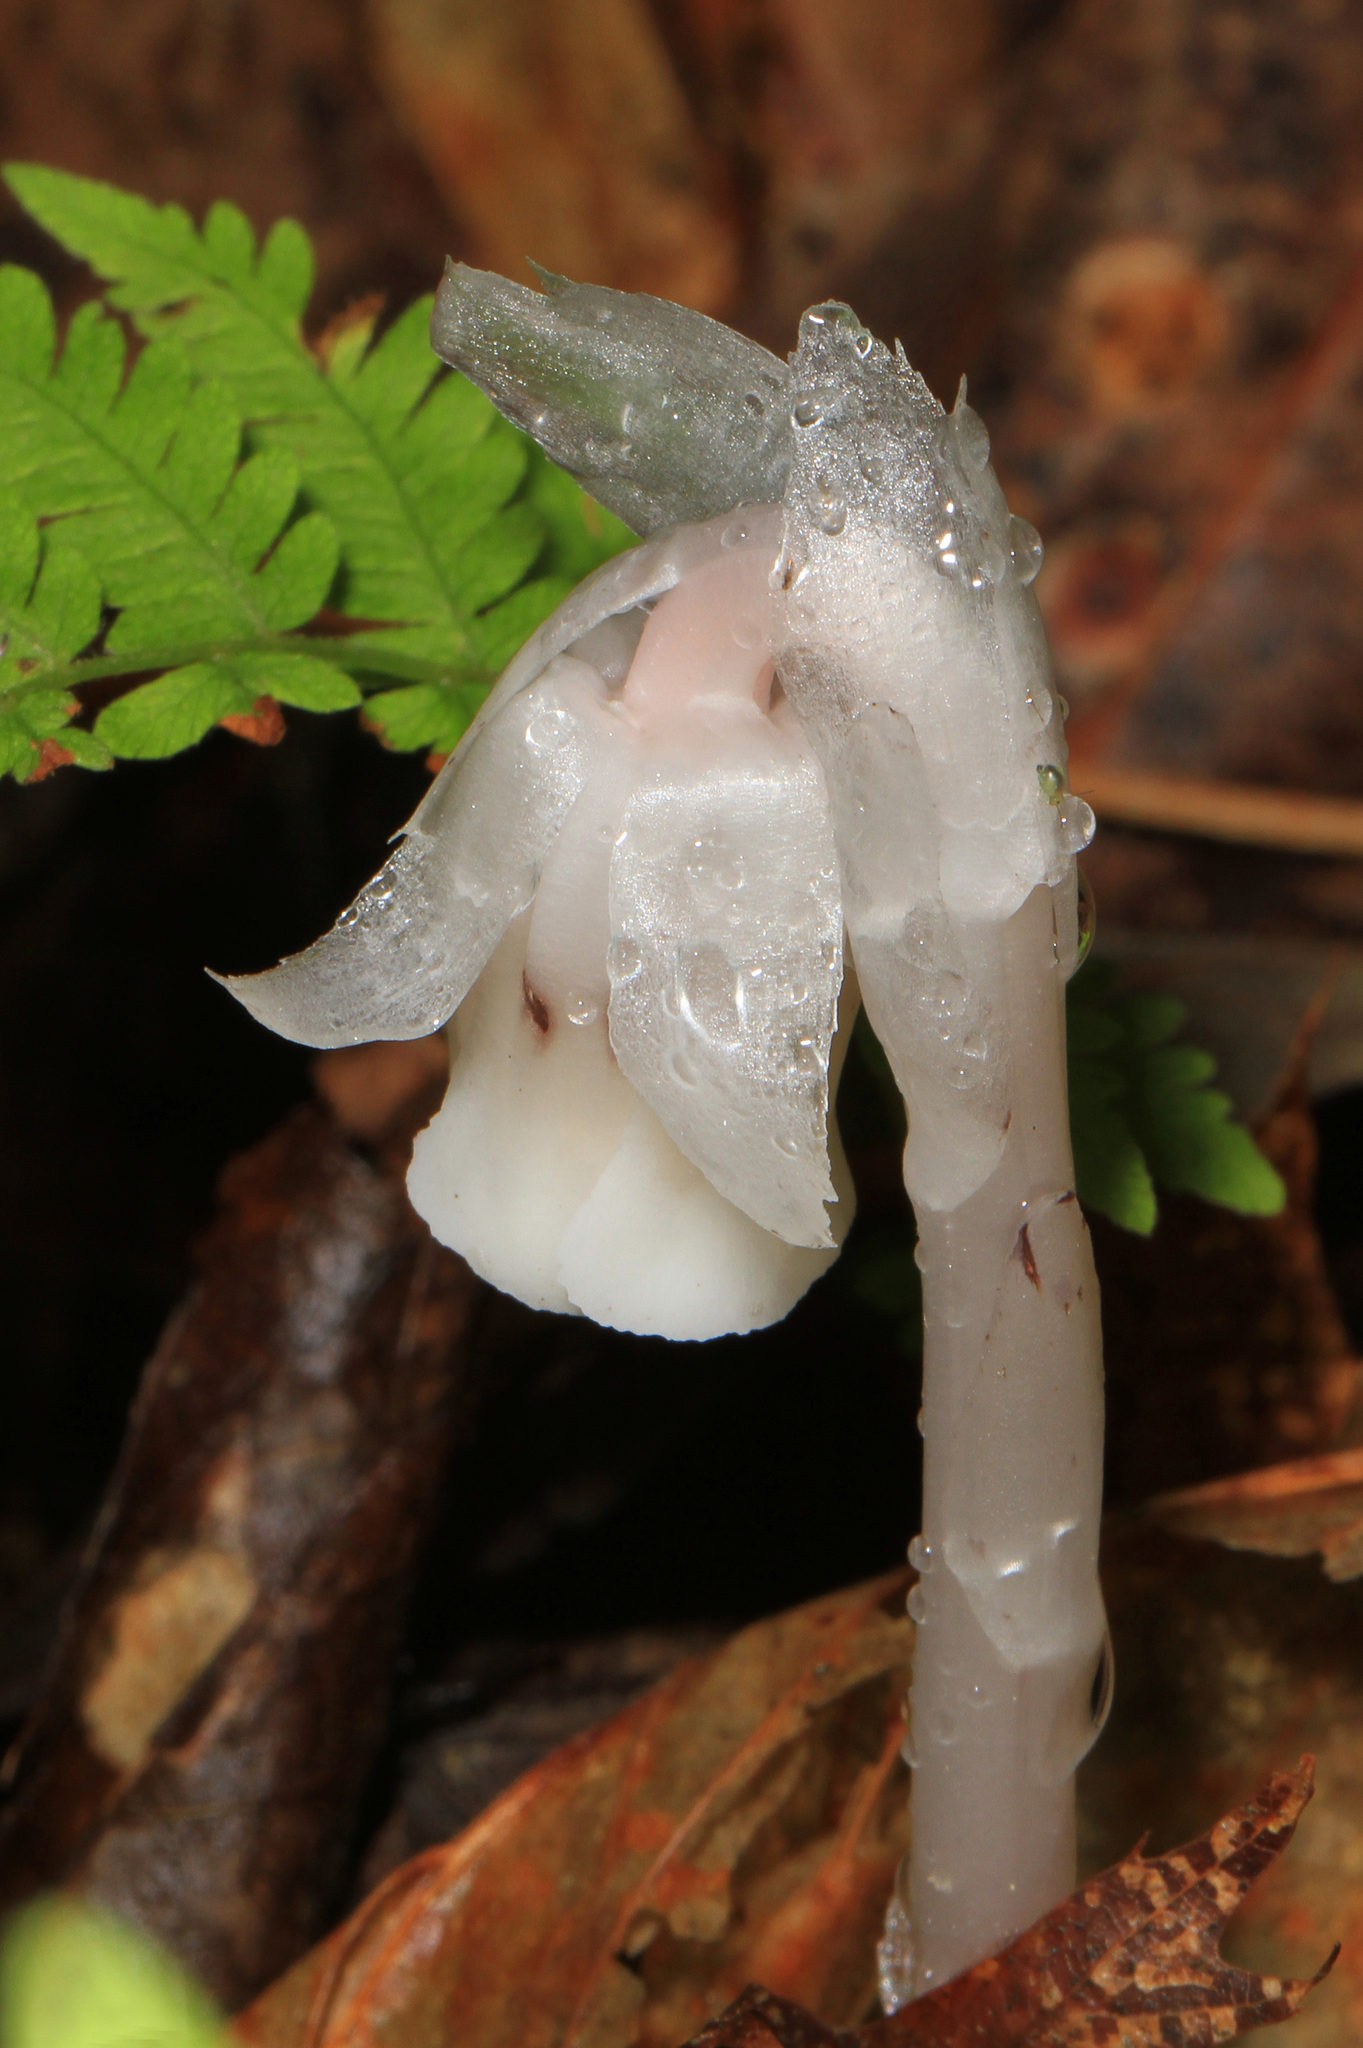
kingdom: Plantae
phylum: Tracheophyta
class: Magnoliopsida
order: Ericales
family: Ericaceae
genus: Monotropa
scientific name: Monotropa uniflora
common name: Convulsion root
